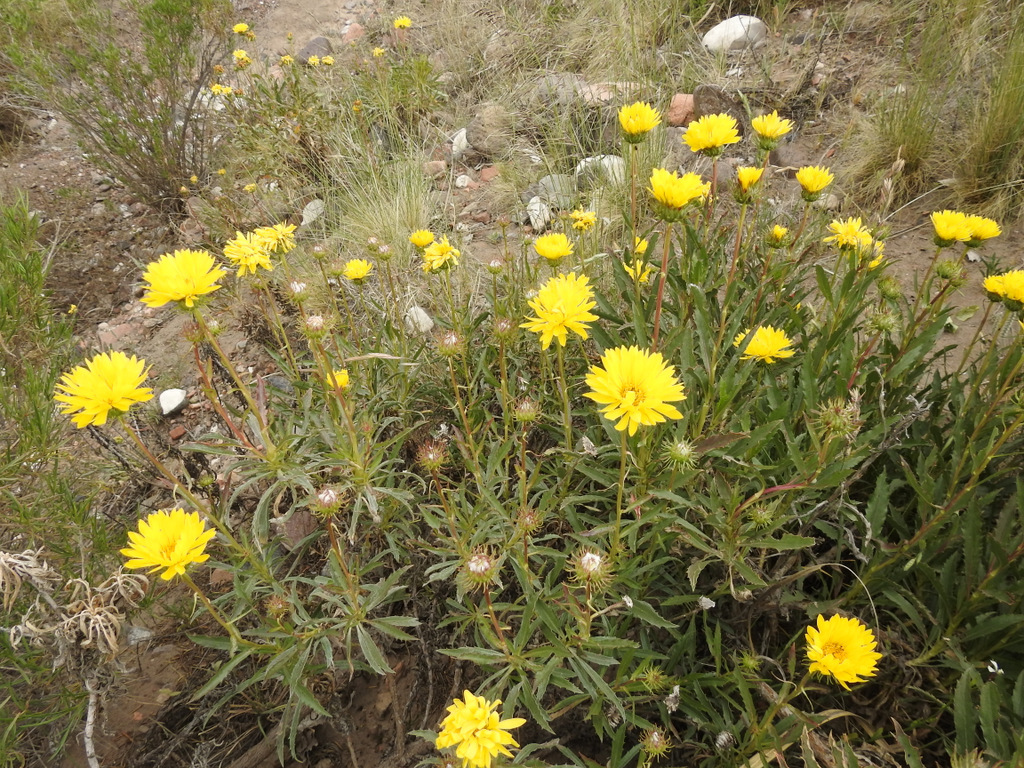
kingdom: Plantae
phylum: Tracheophyta
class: Magnoliopsida
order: Asterales
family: Asteraceae
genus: Grindelia
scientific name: Grindelia chiloensis
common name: Shrubby gumweed
